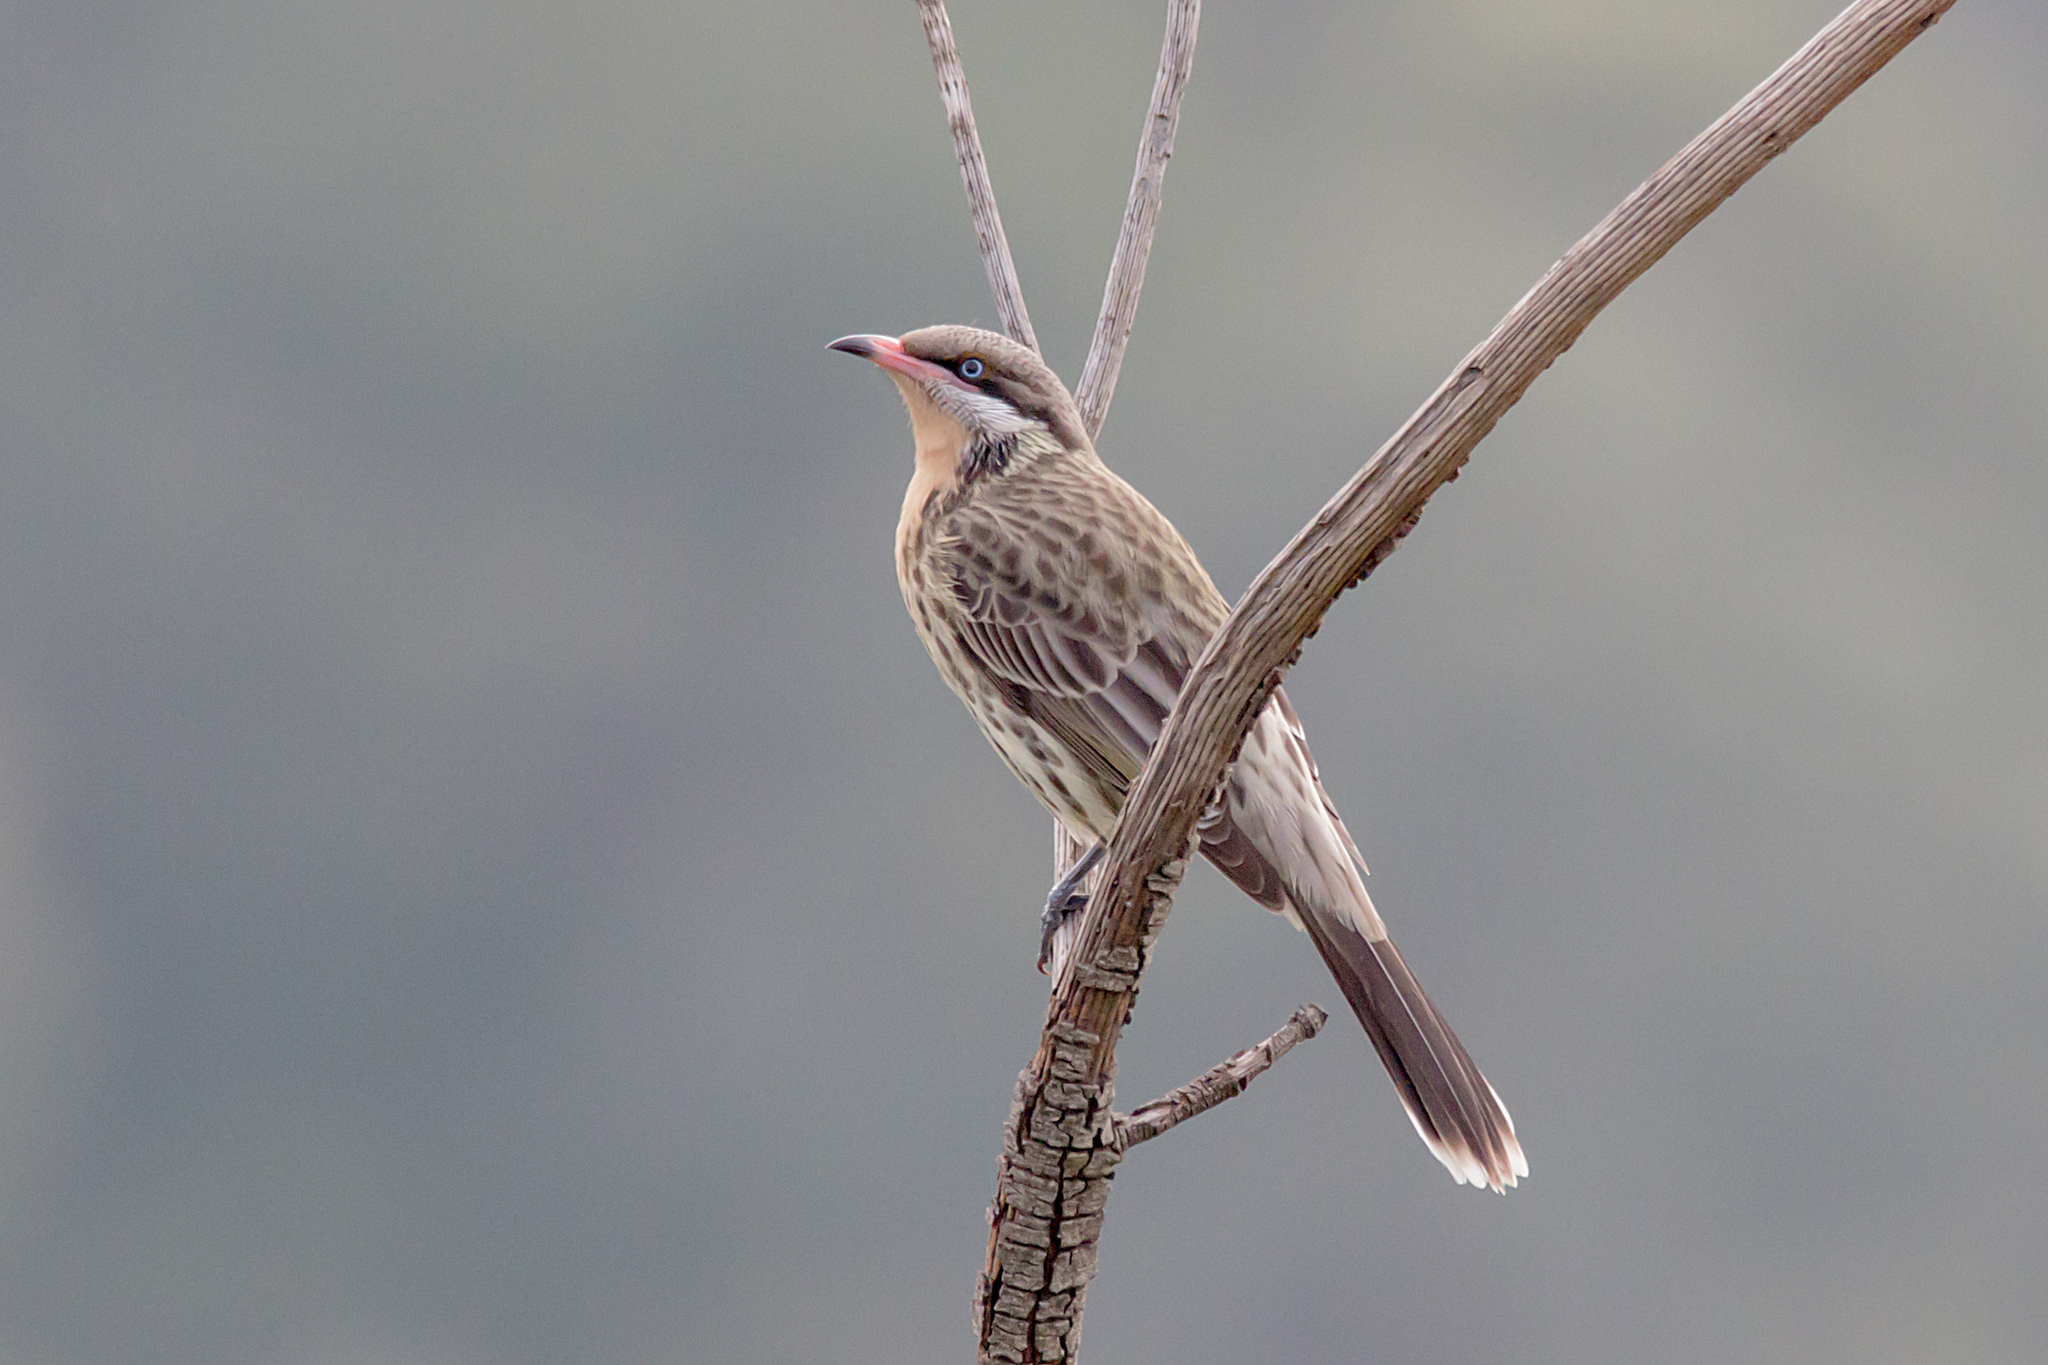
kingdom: Animalia
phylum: Chordata
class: Aves
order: Passeriformes
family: Meliphagidae
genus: Acanthagenys
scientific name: Acanthagenys rufogularis
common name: Spiny-cheeked honeyeater
